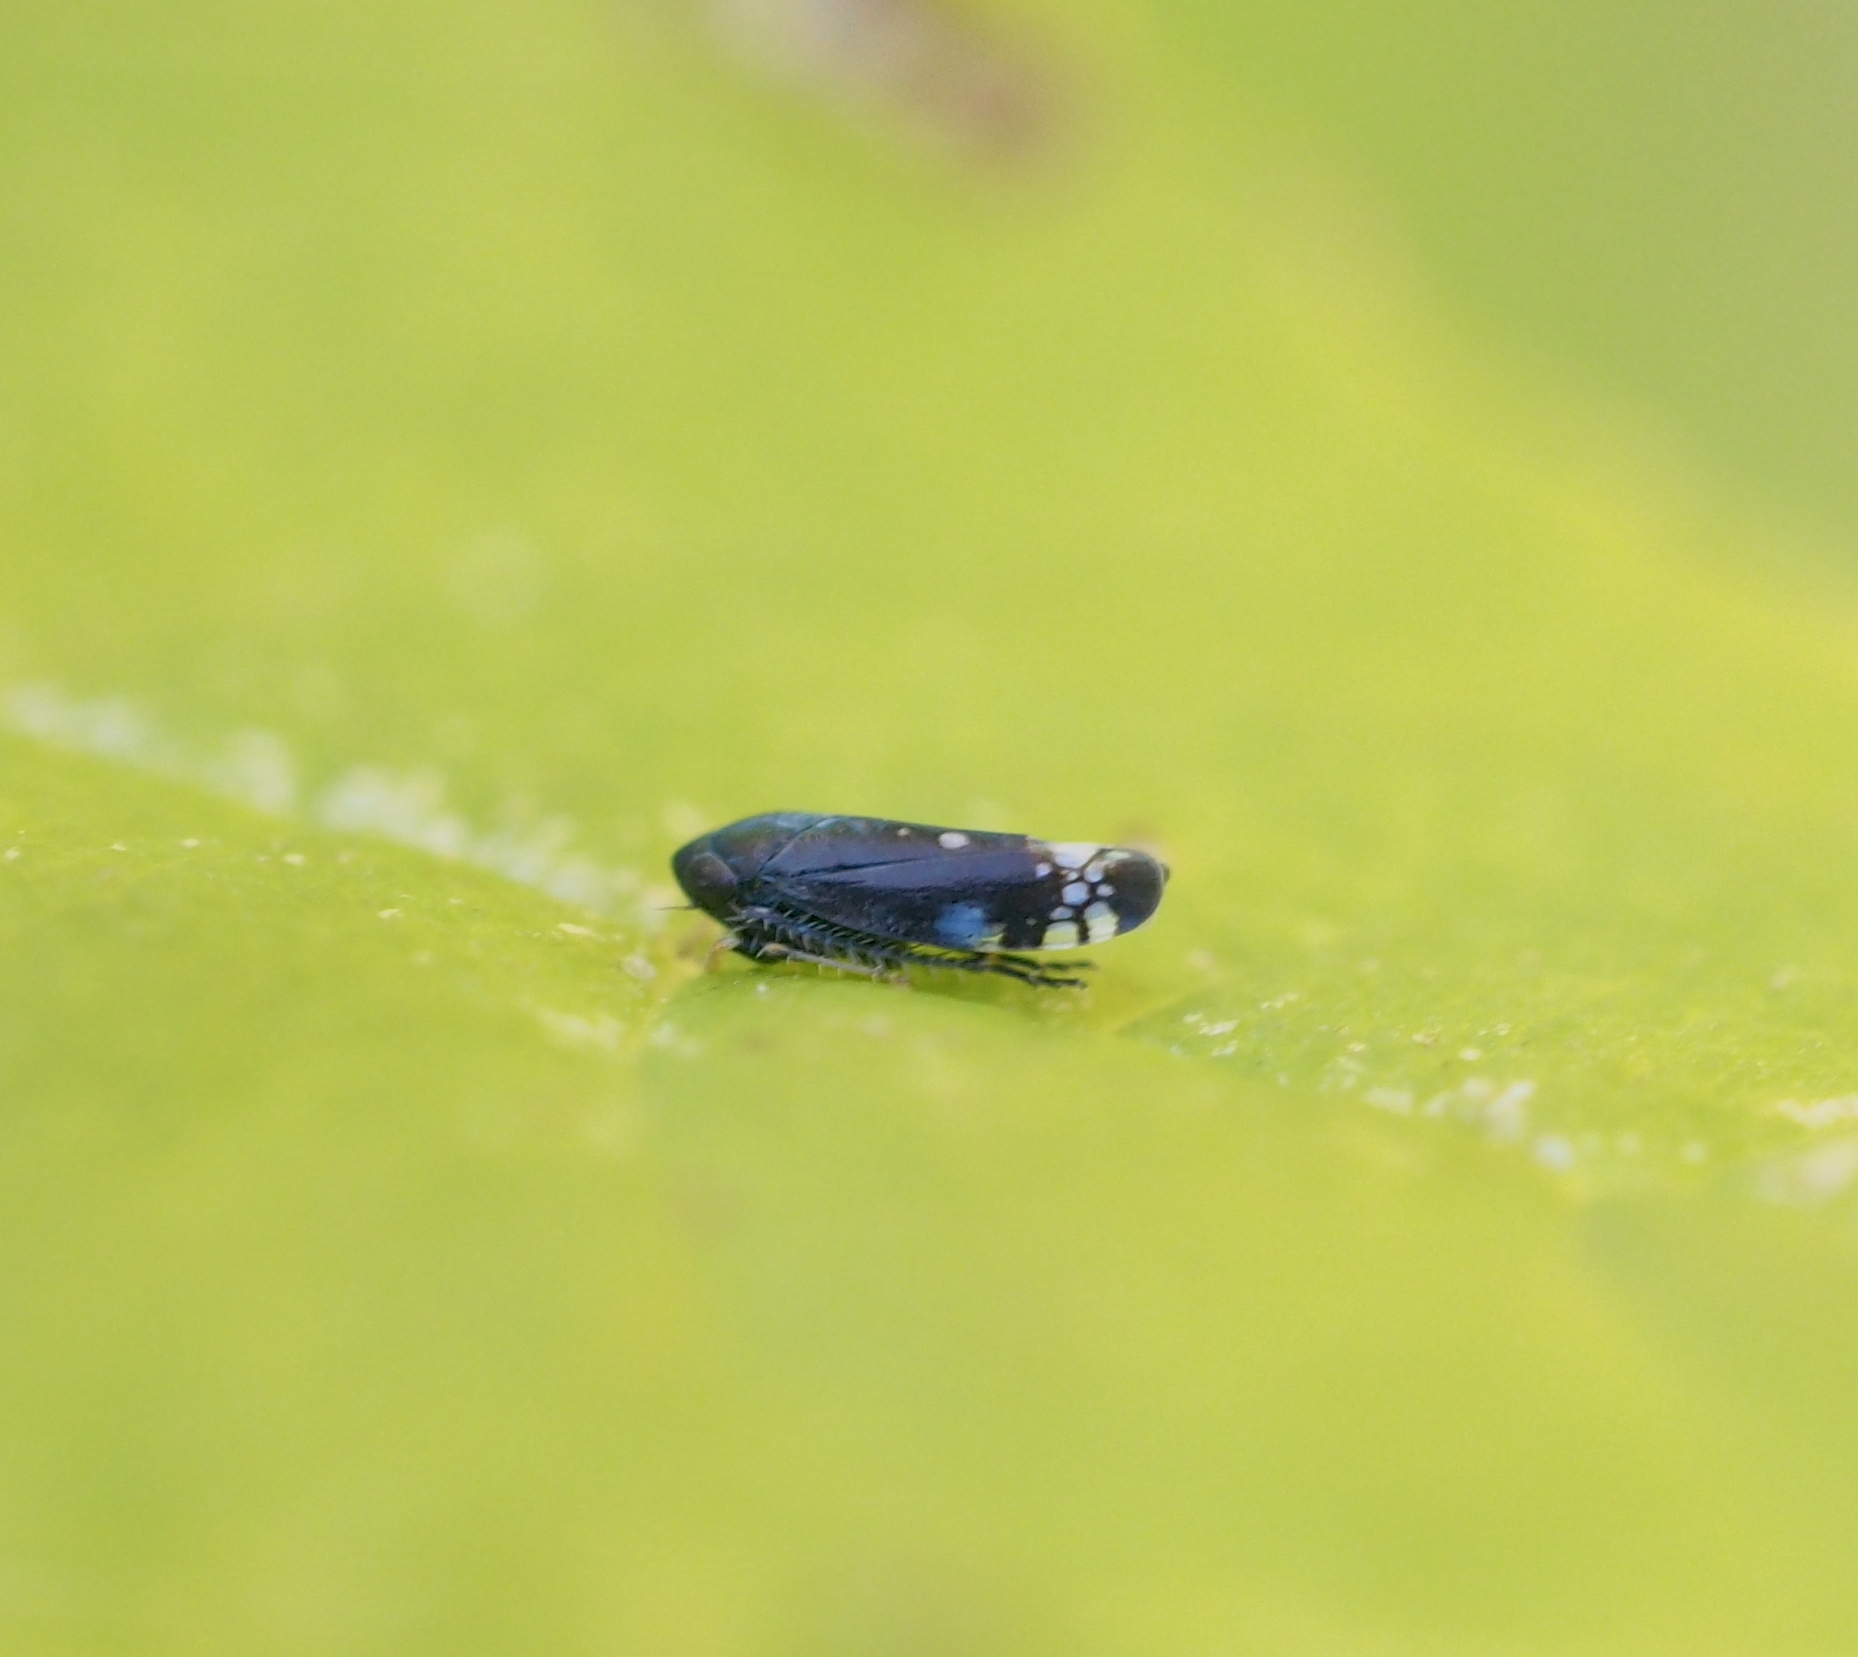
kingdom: Animalia
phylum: Arthropoda
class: Insecta
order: Hemiptera
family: Cicadellidae
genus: Neoaliturus
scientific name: Neoaliturus fenestratus
